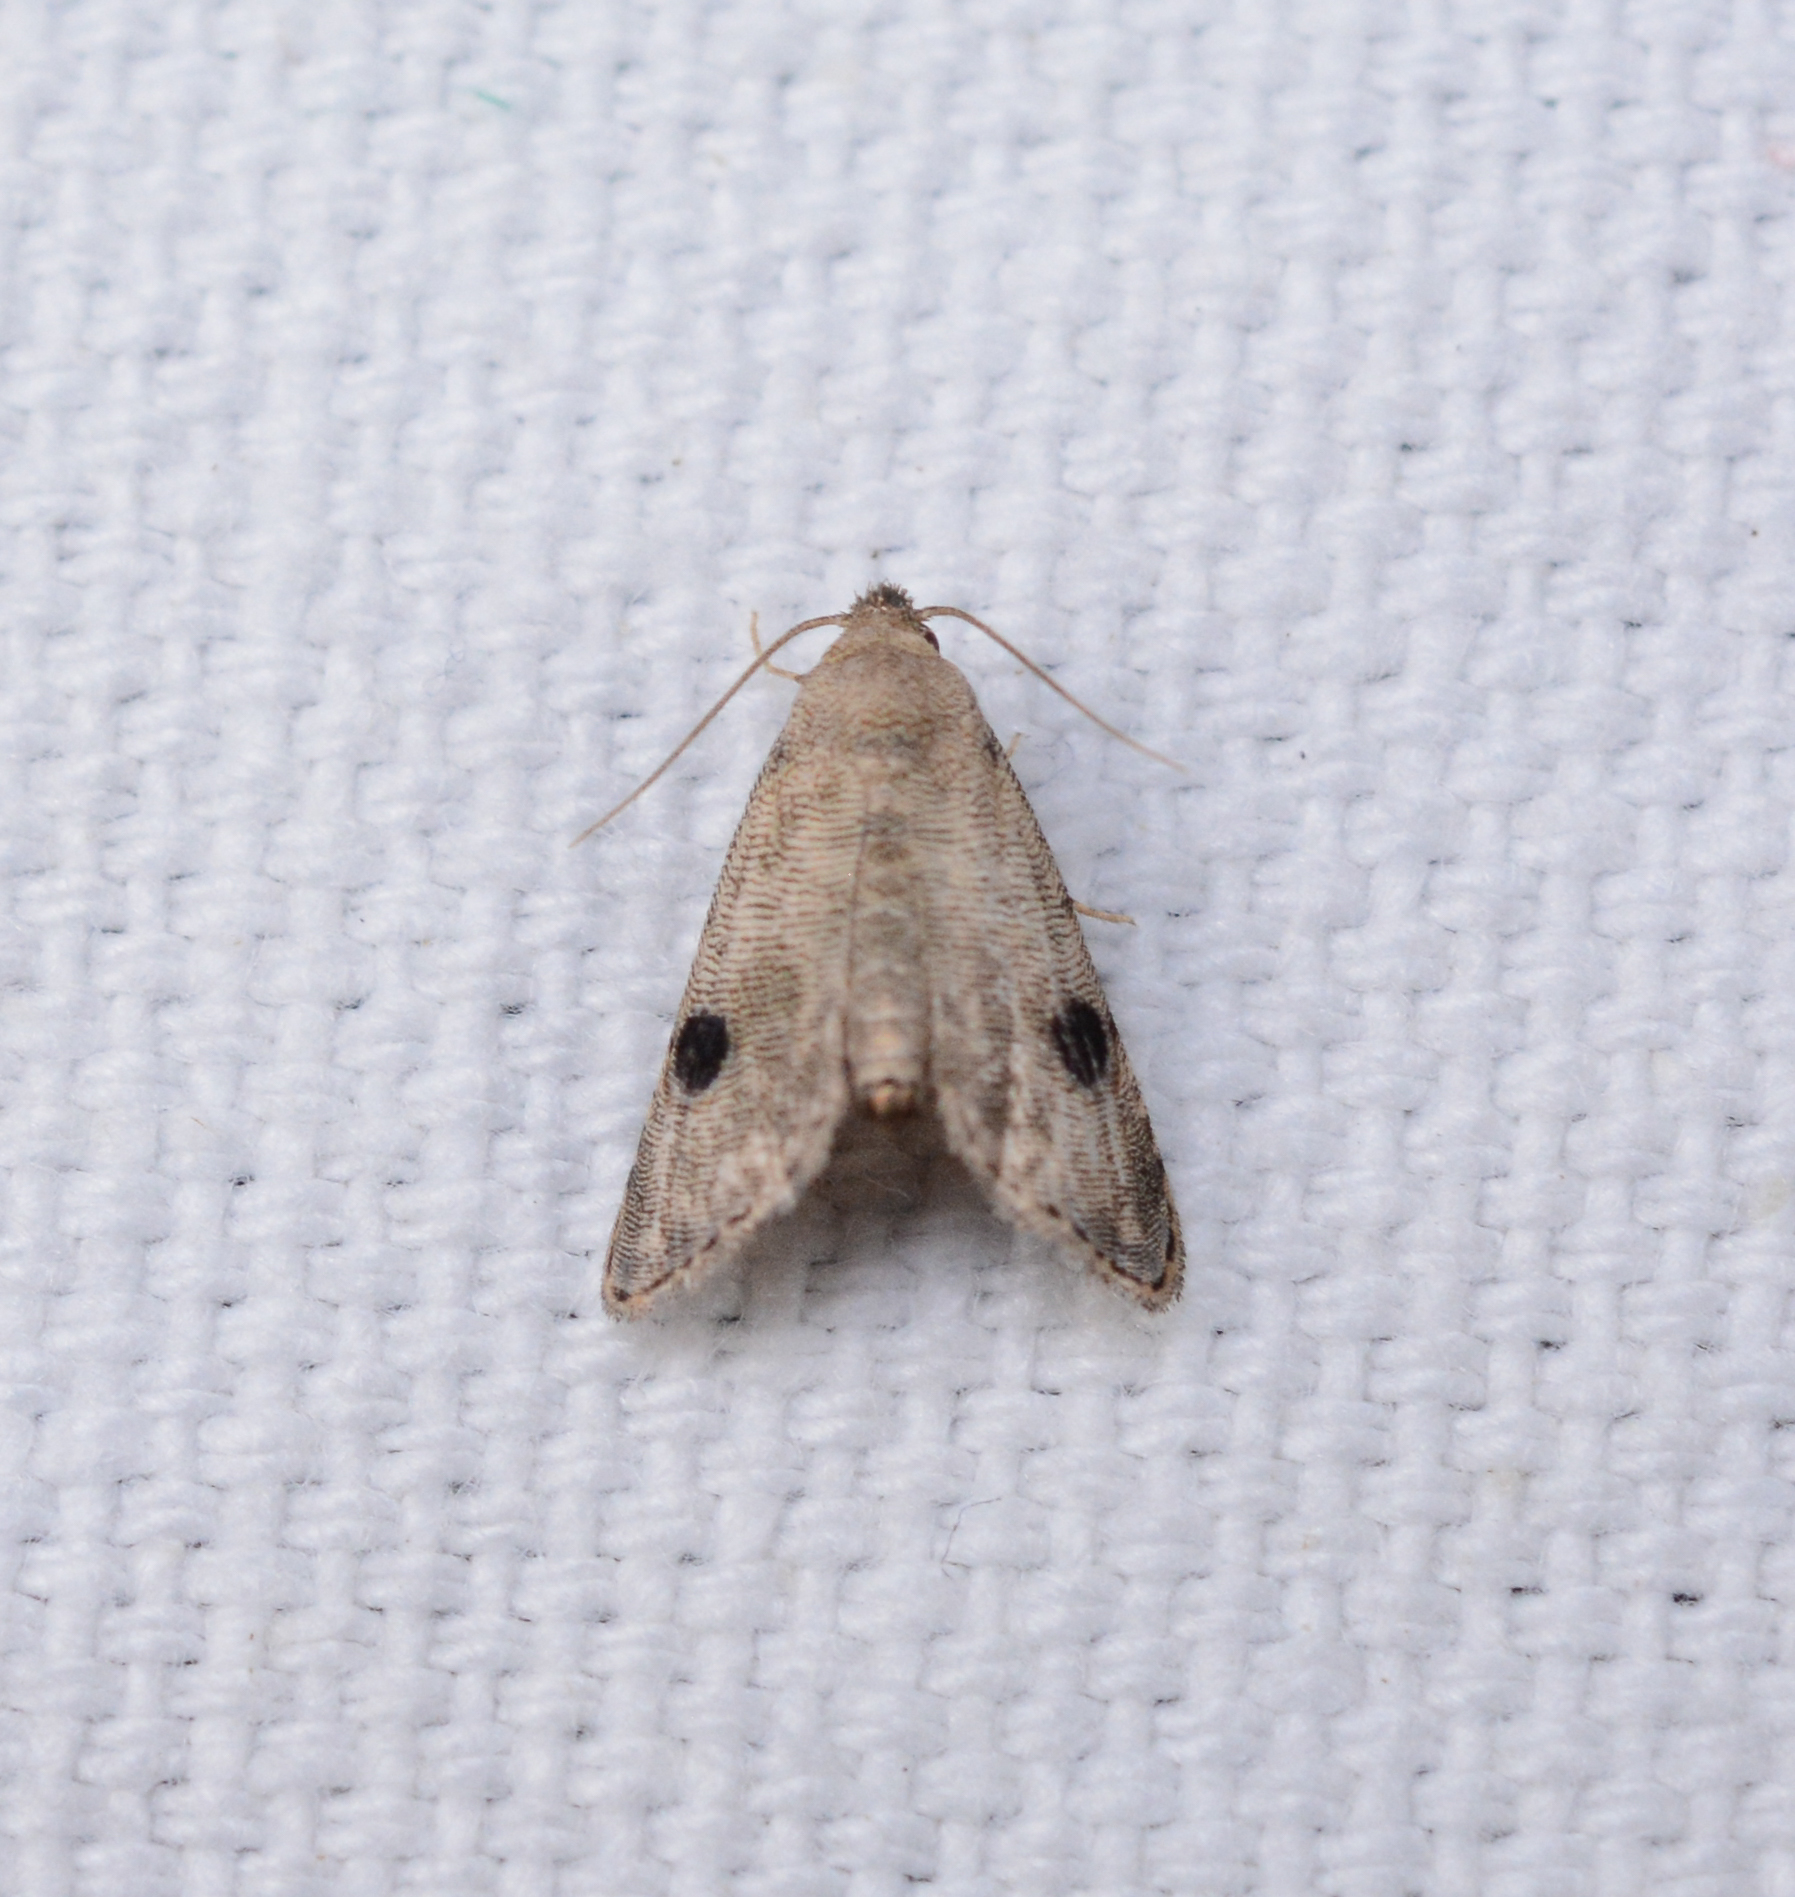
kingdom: Animalia
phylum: Arthropoda
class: Insecta
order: Lepidoptera
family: Noctuidae
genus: Abablemma
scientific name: Abablemma brimleyana
